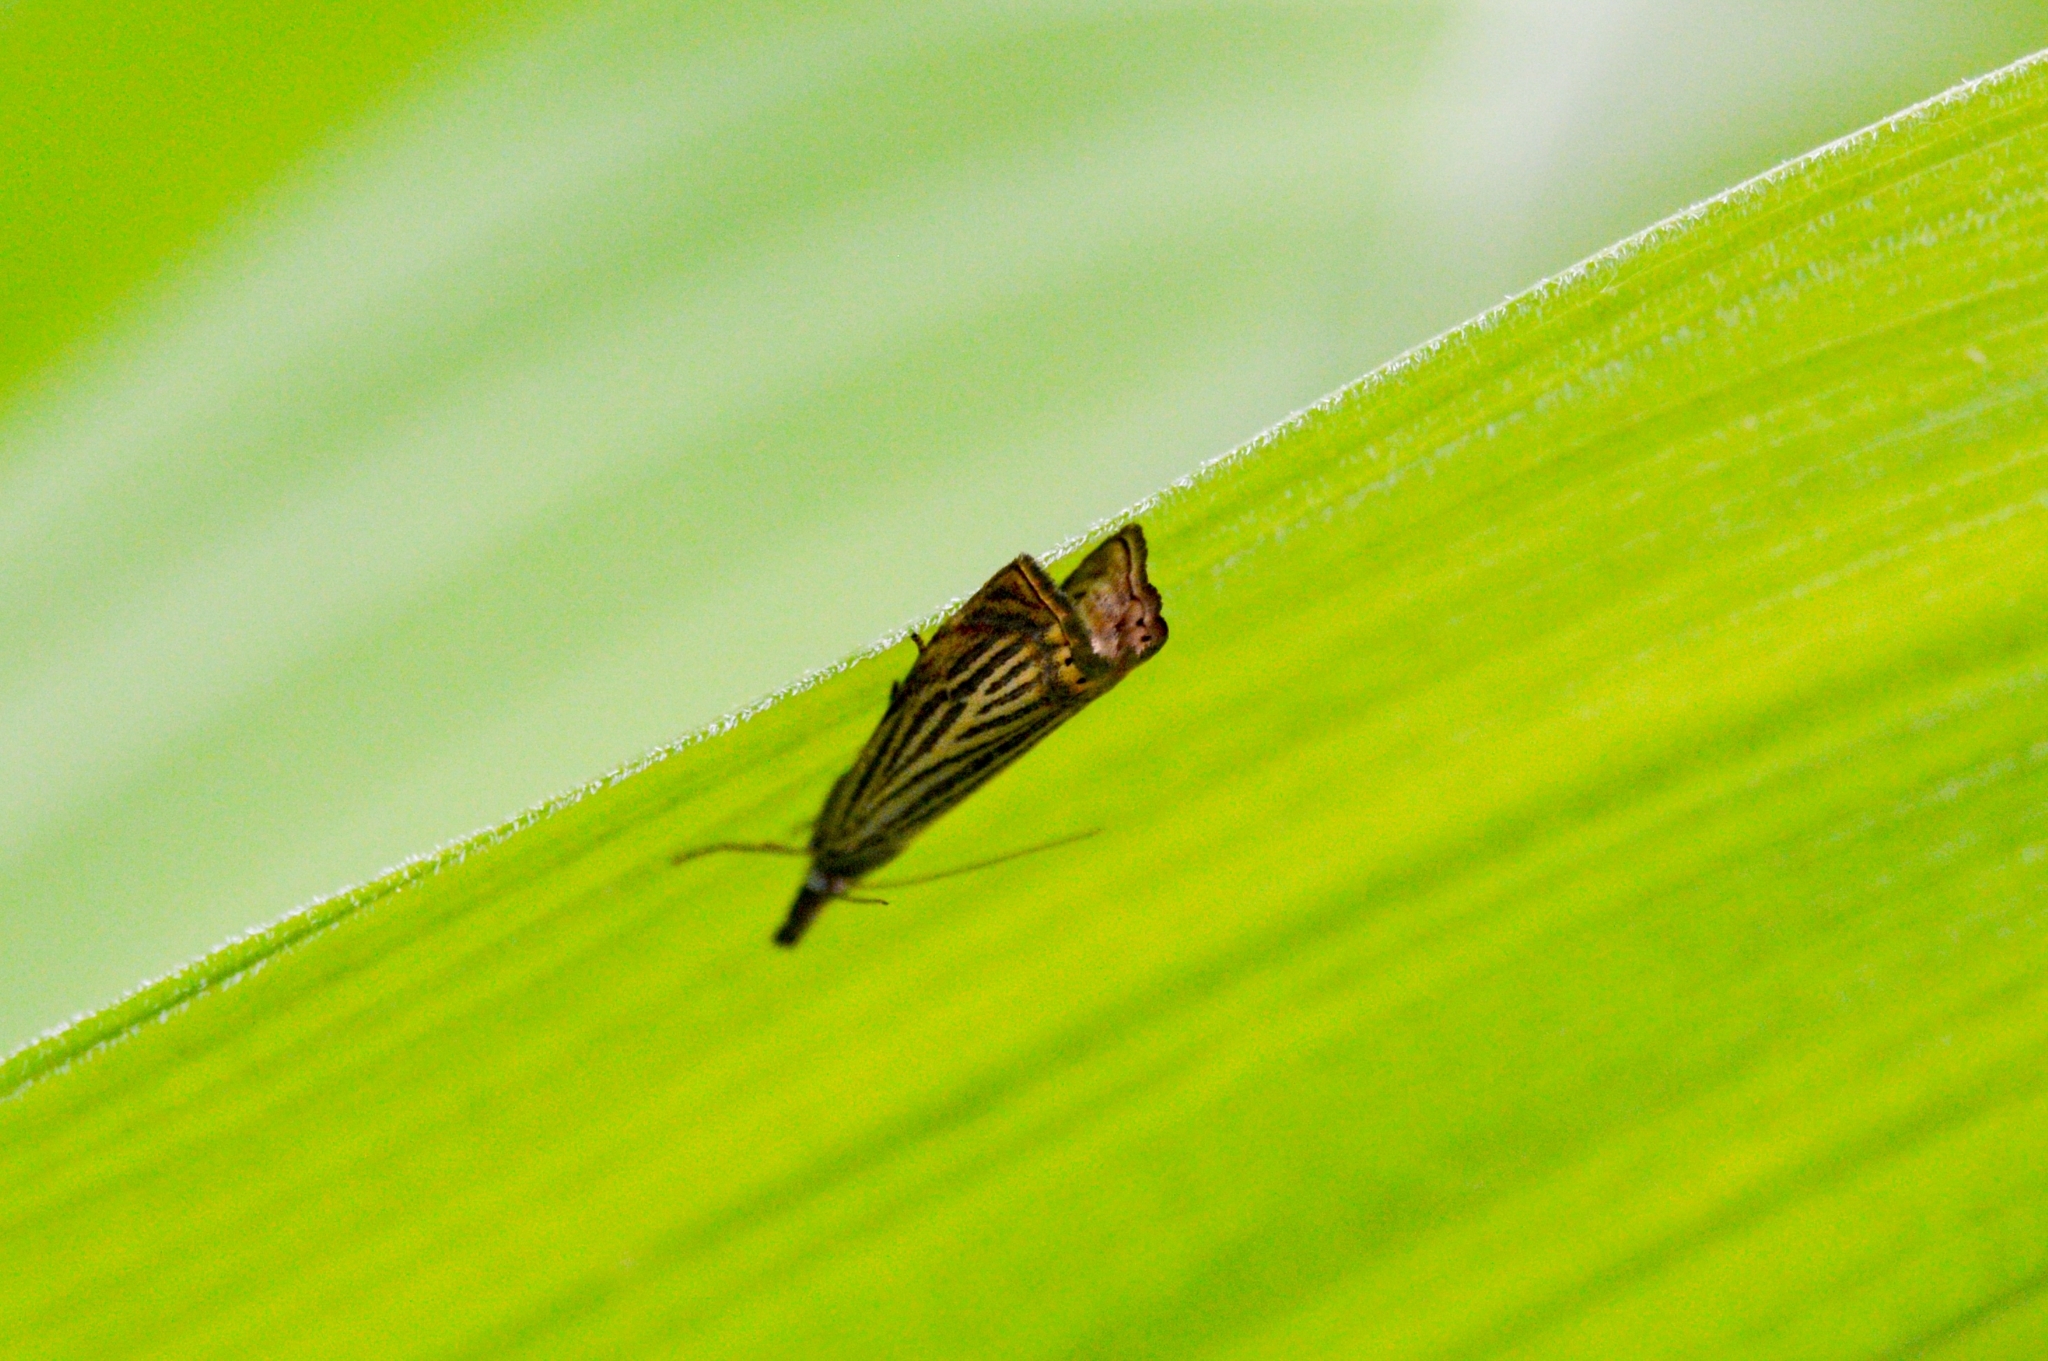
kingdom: Animalia
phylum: Arthropoda
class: Insecta
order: Lepidoptera
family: Crambidae
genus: Chrysoteuchia
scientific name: Chrysoteuchia culmella
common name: Garden grass-veneer
